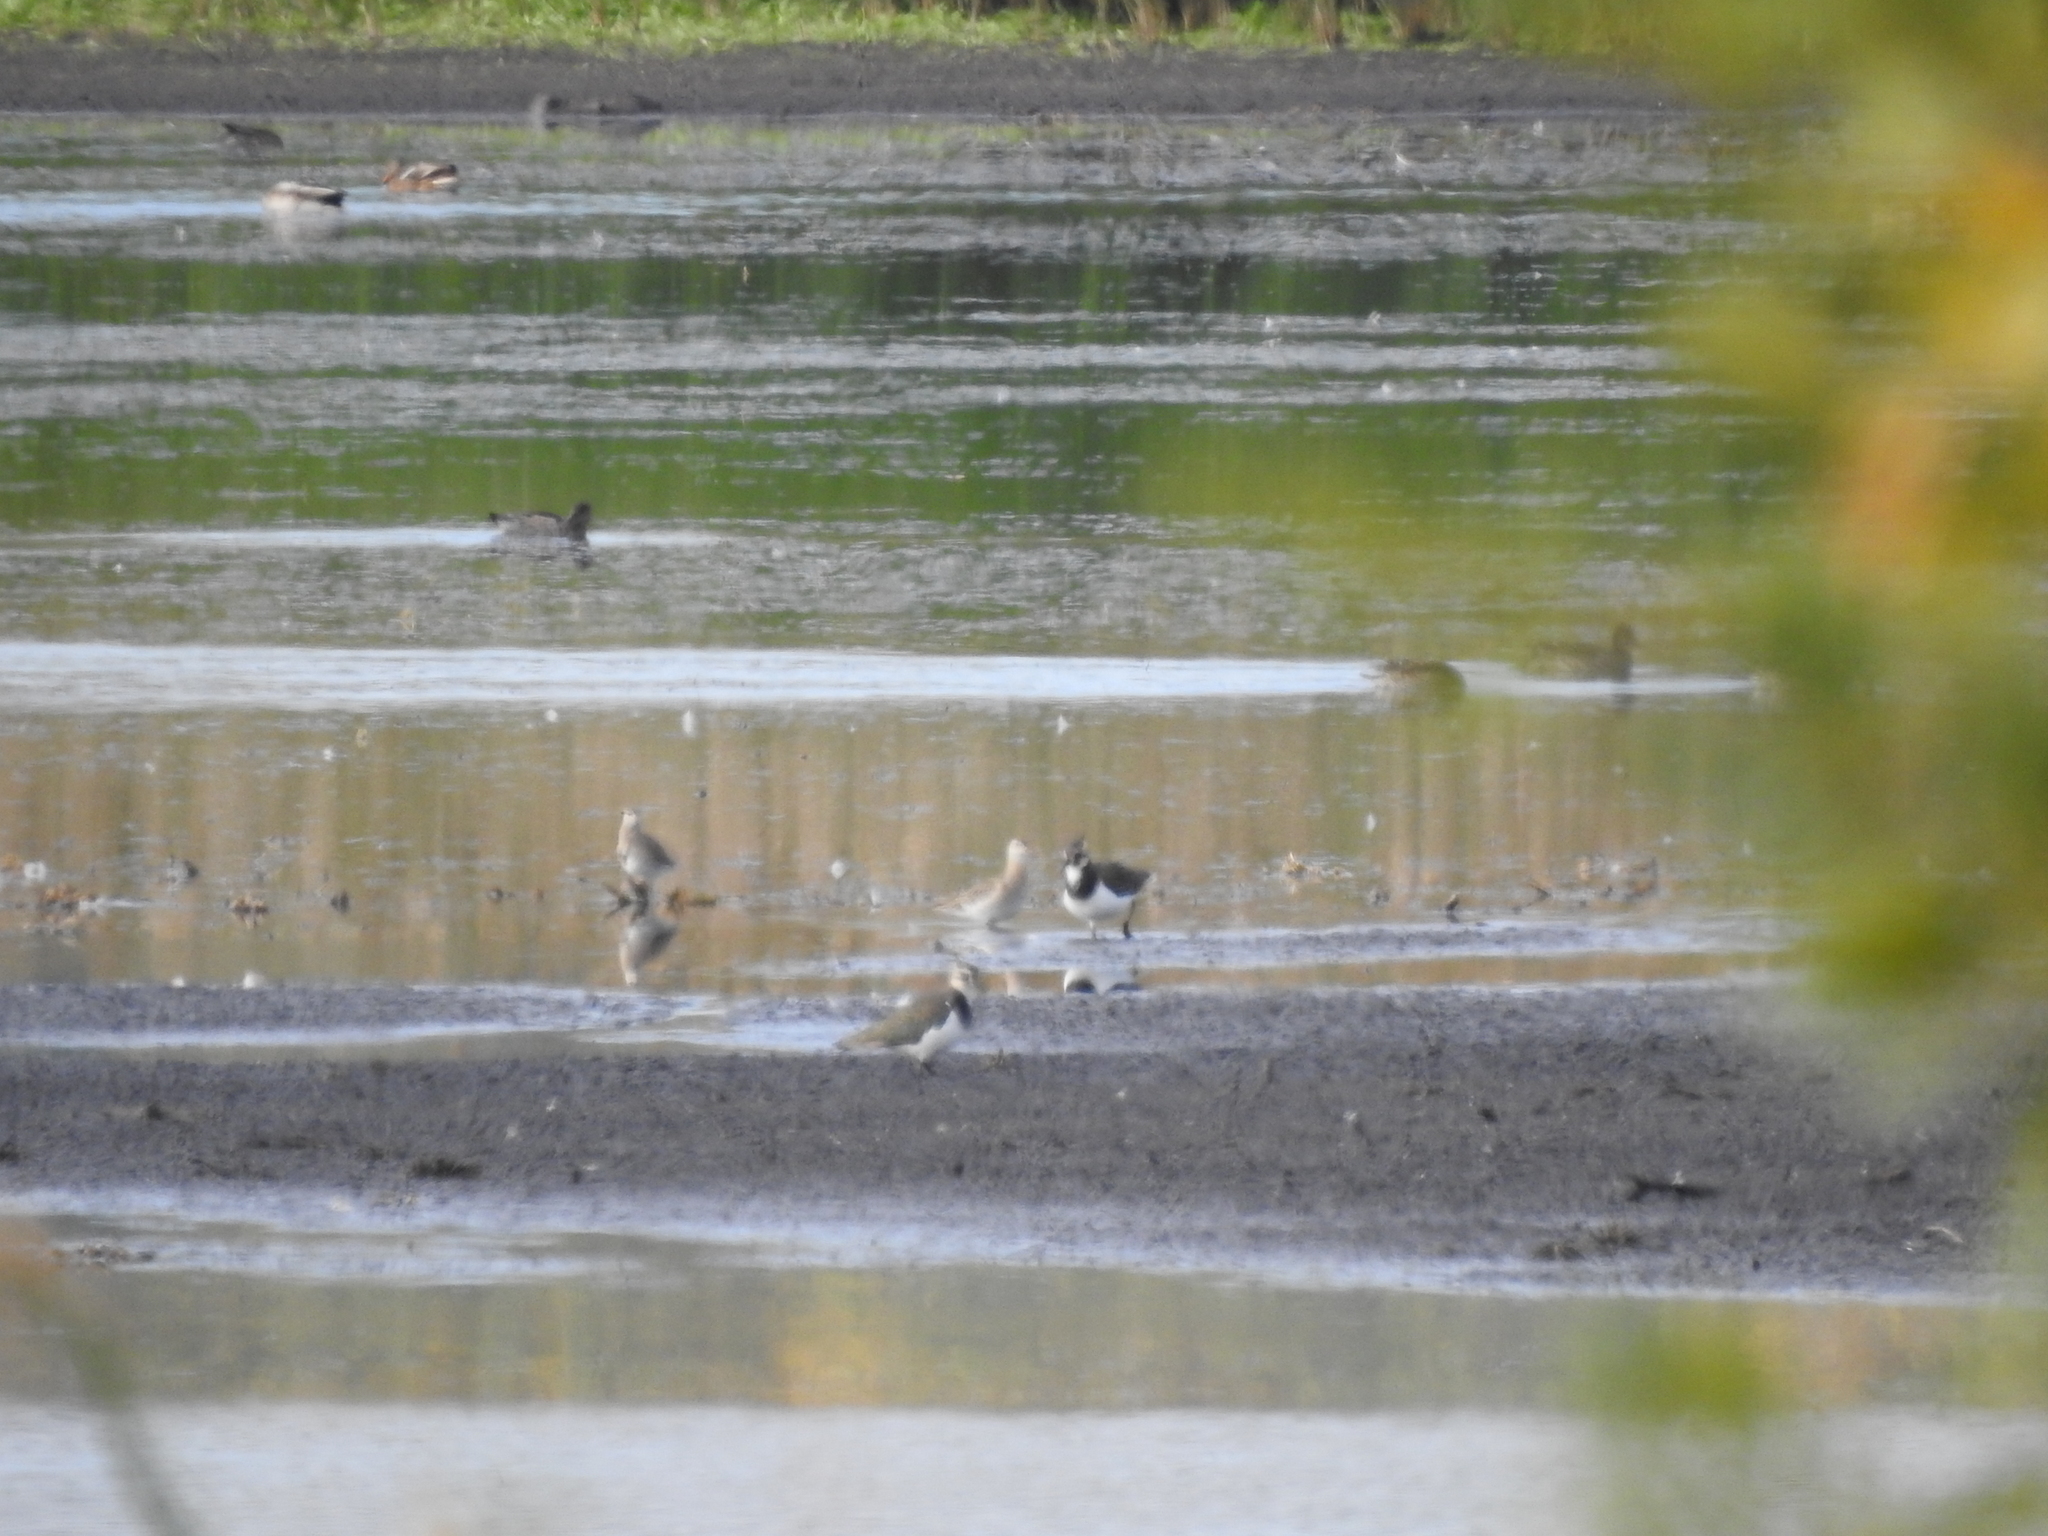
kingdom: Animalia
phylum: Chordata
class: Aves
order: Charadriiformes
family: Charadriidae
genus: Vanellus
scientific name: Vanellus vanellus
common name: Northern lapwing
